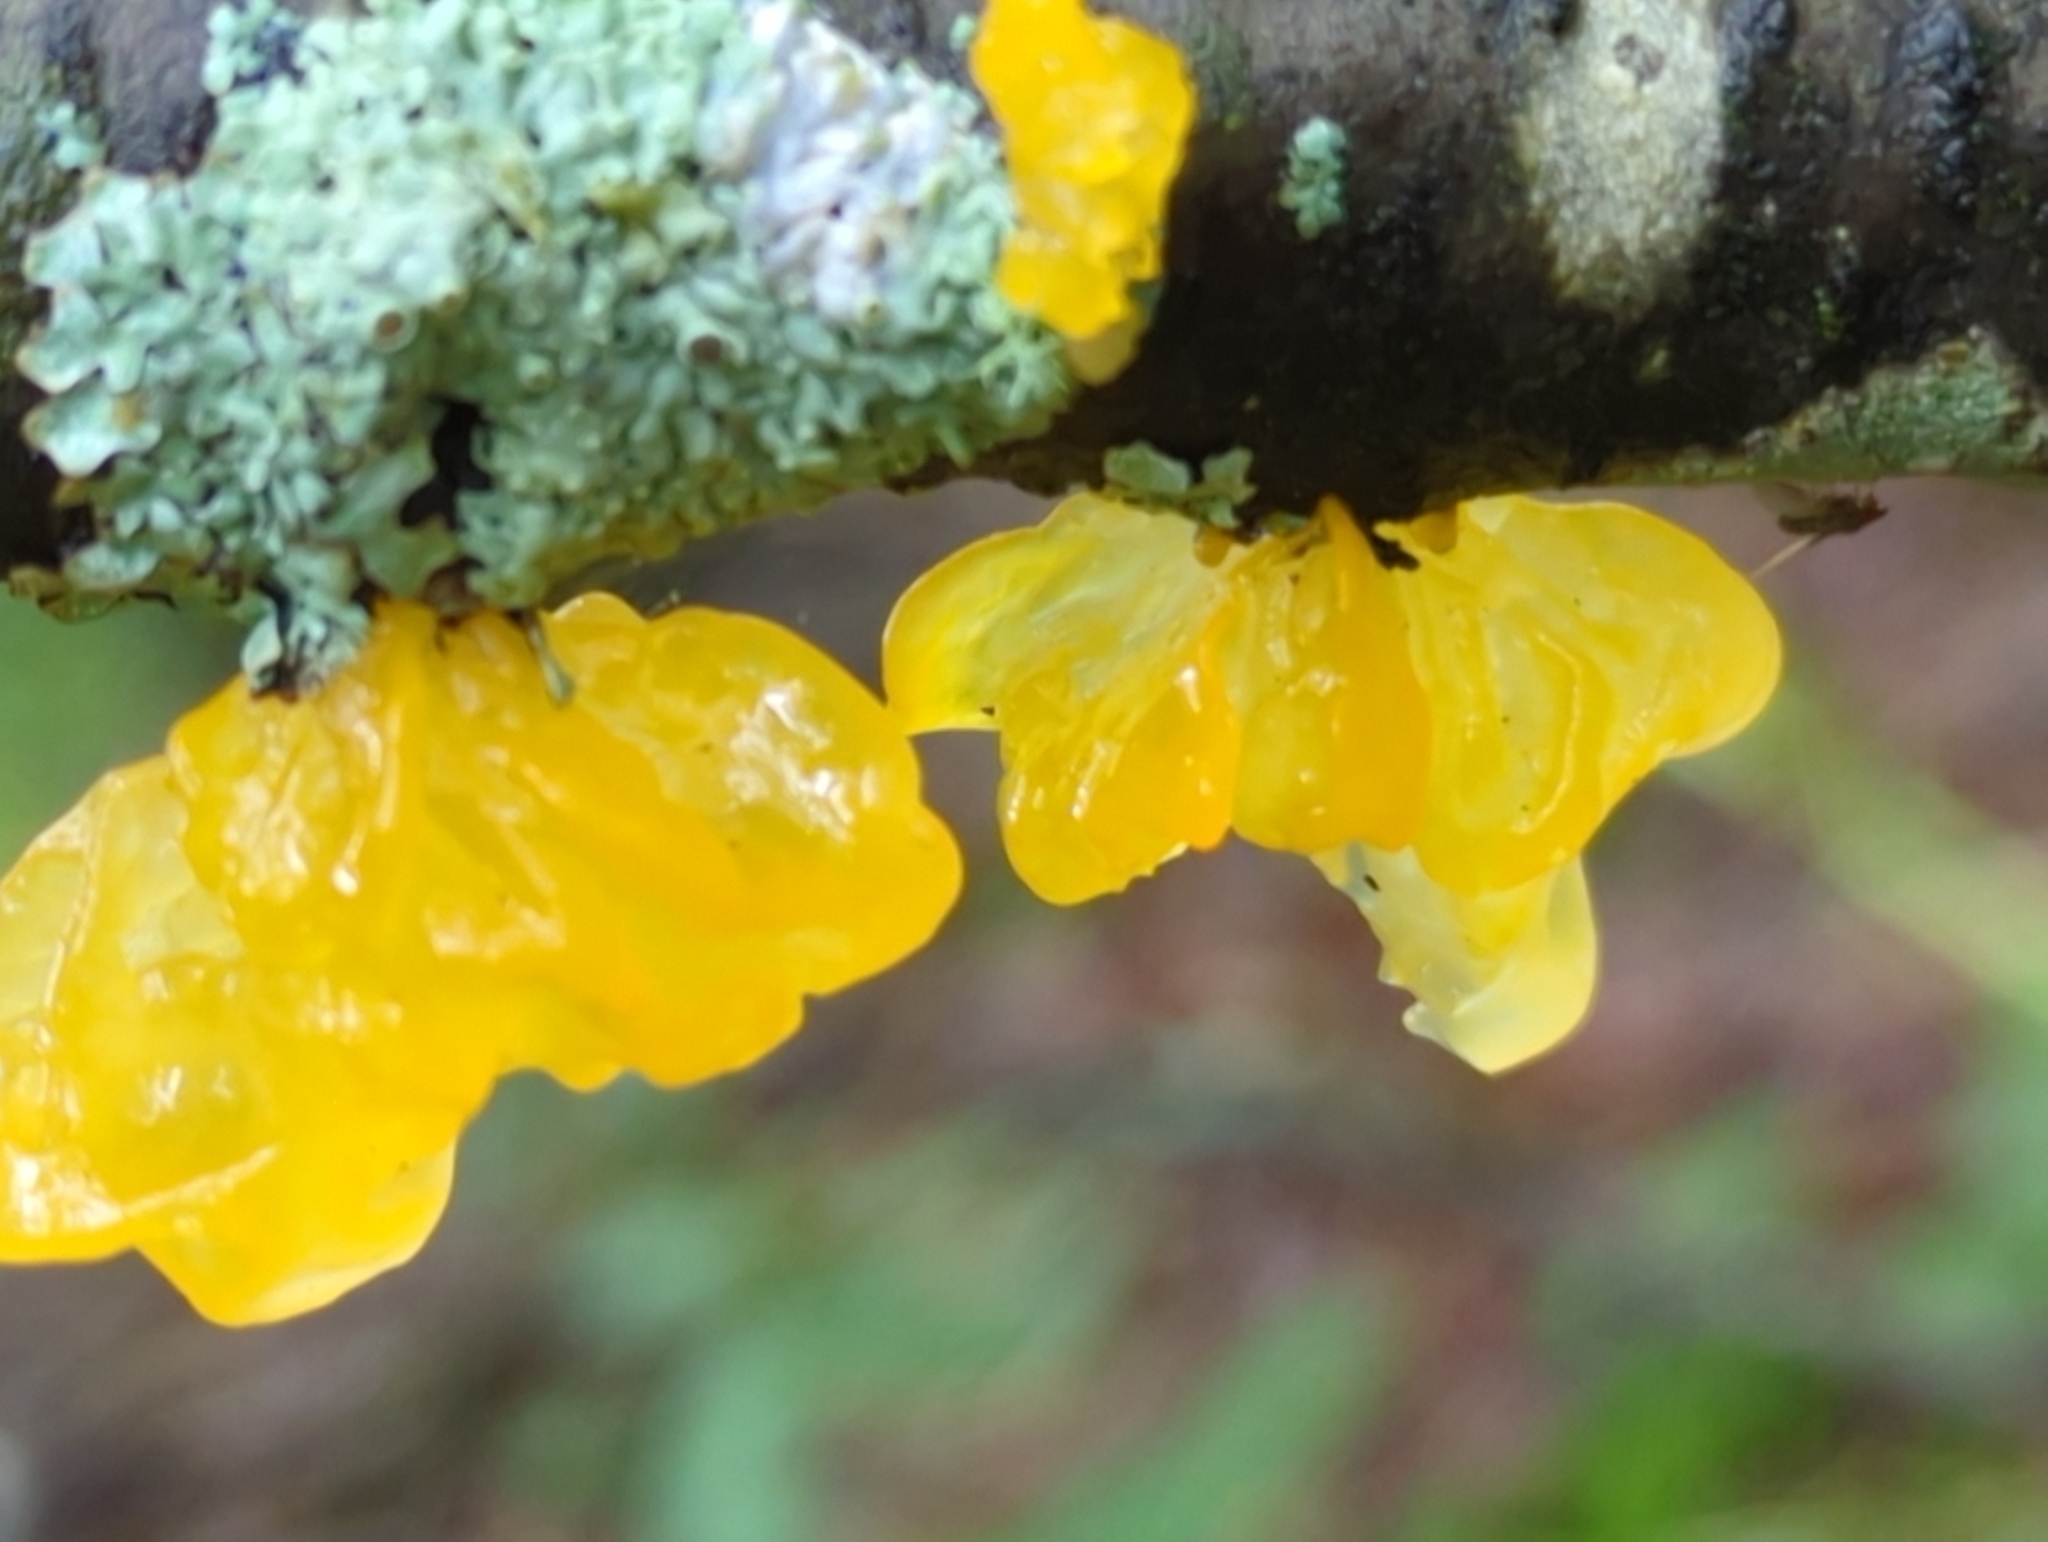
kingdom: Fungi
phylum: Basidiomycota
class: Tremellomycetes
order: Tremellales
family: Tremellaceae
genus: Tremella
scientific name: Tremella mesenterica
